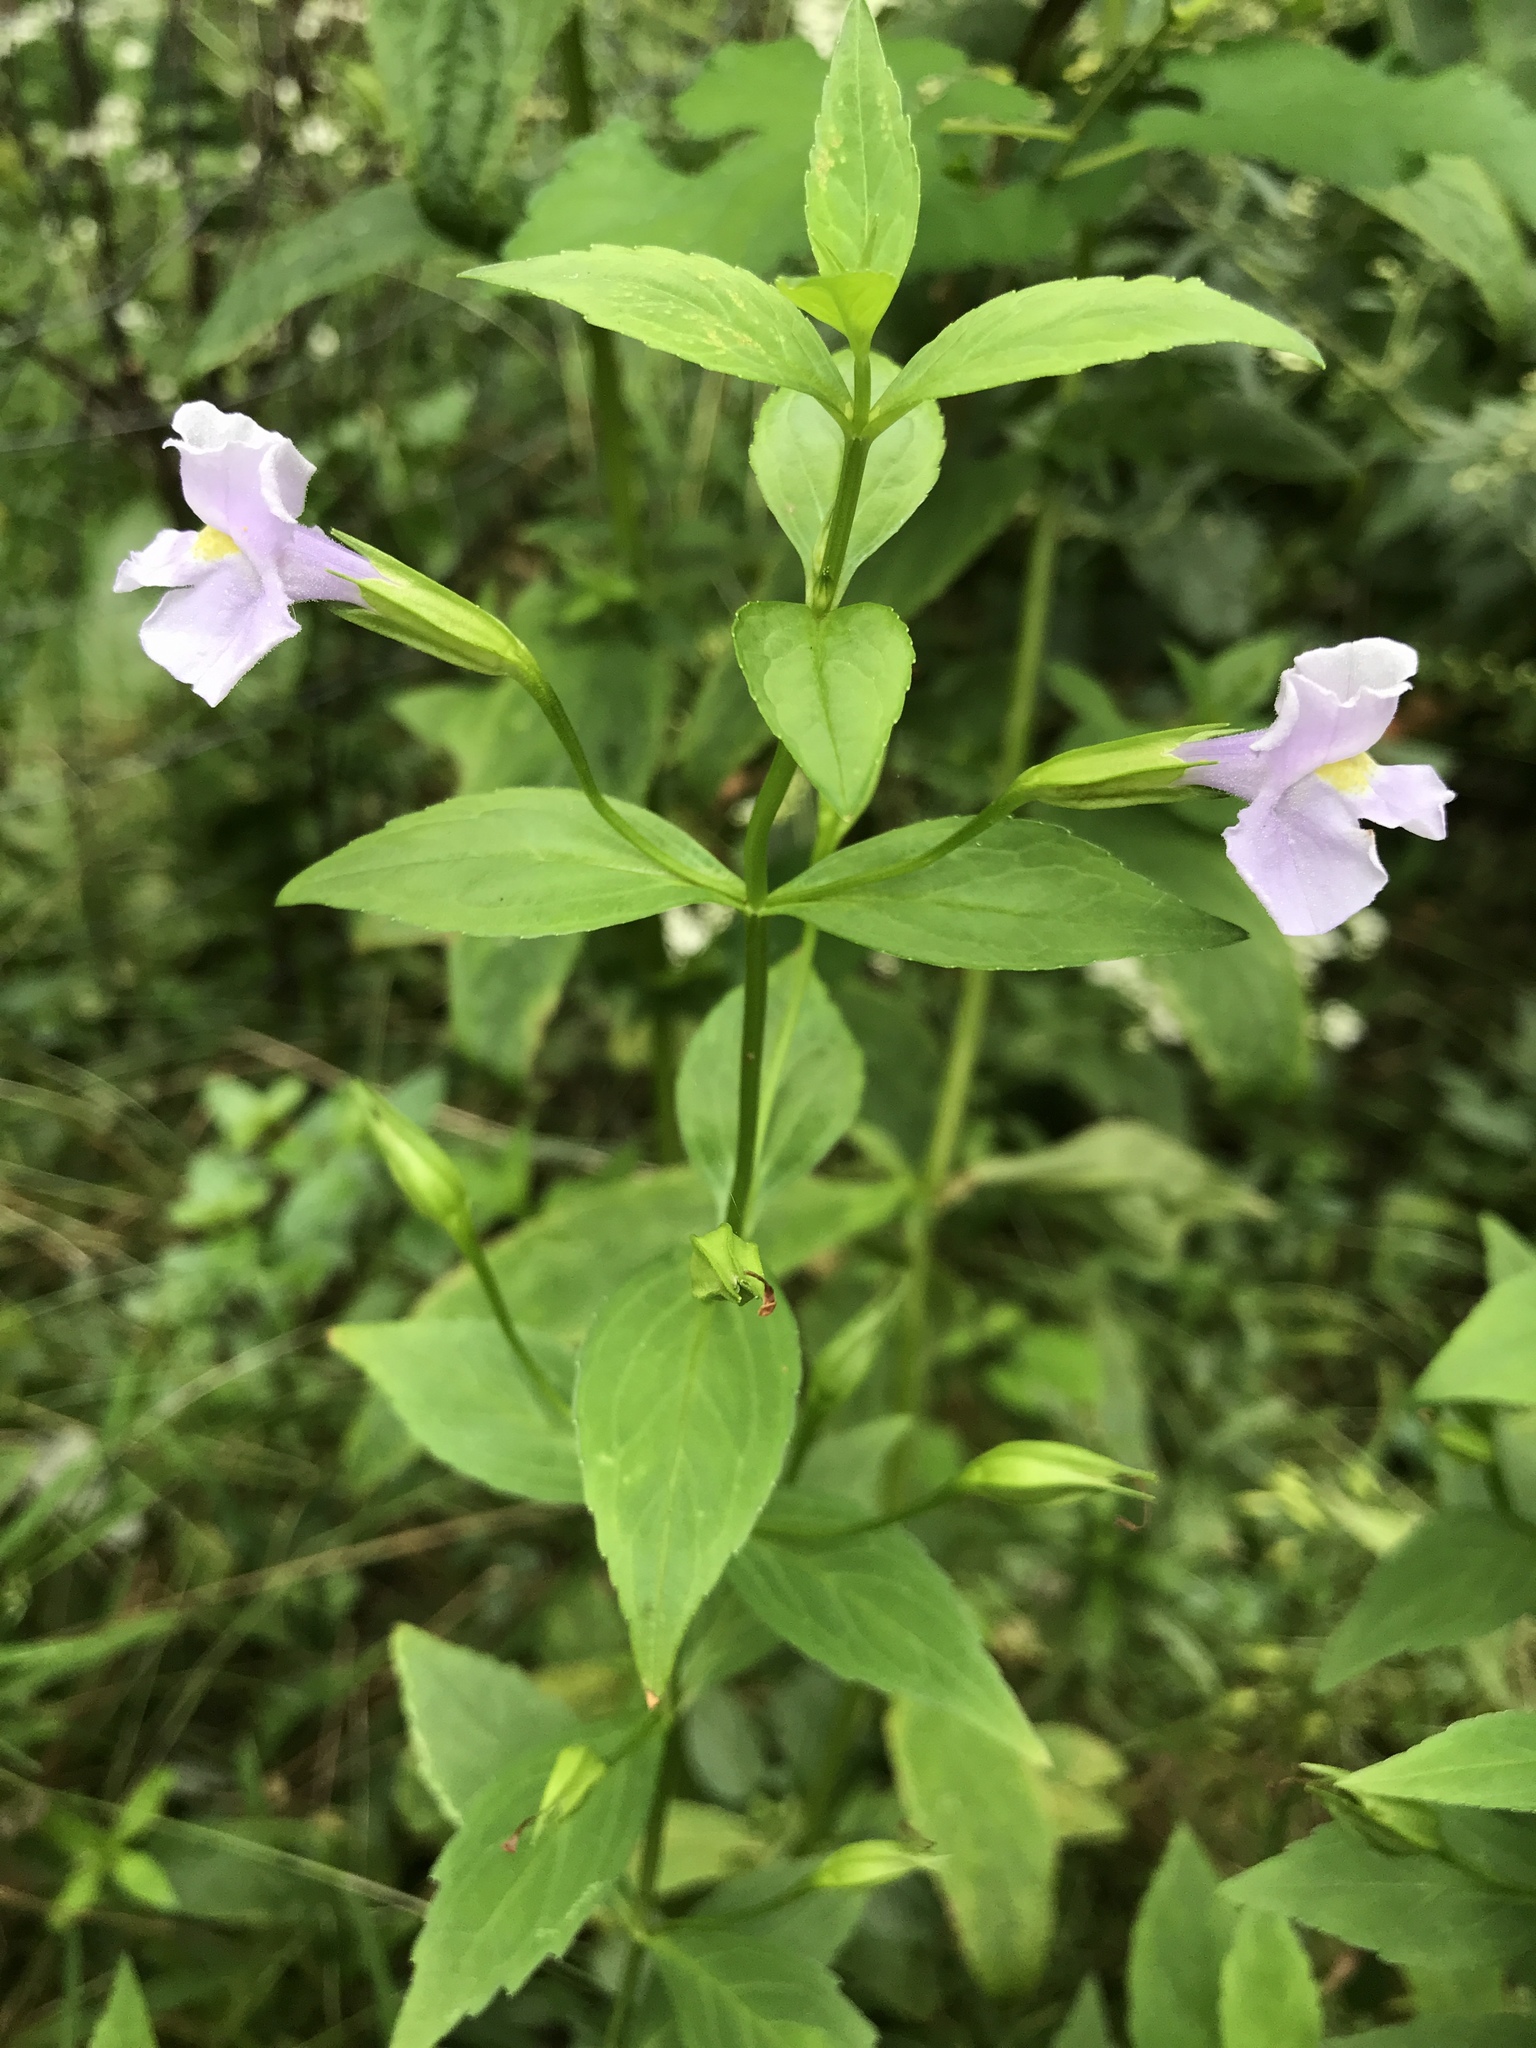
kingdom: Plantae
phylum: Tracheophyta
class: Magnoliopsida
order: Lamiales
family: Phrymaceae
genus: Mimulus
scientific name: Mimulus ringens
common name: Allegheny monkeyflower
